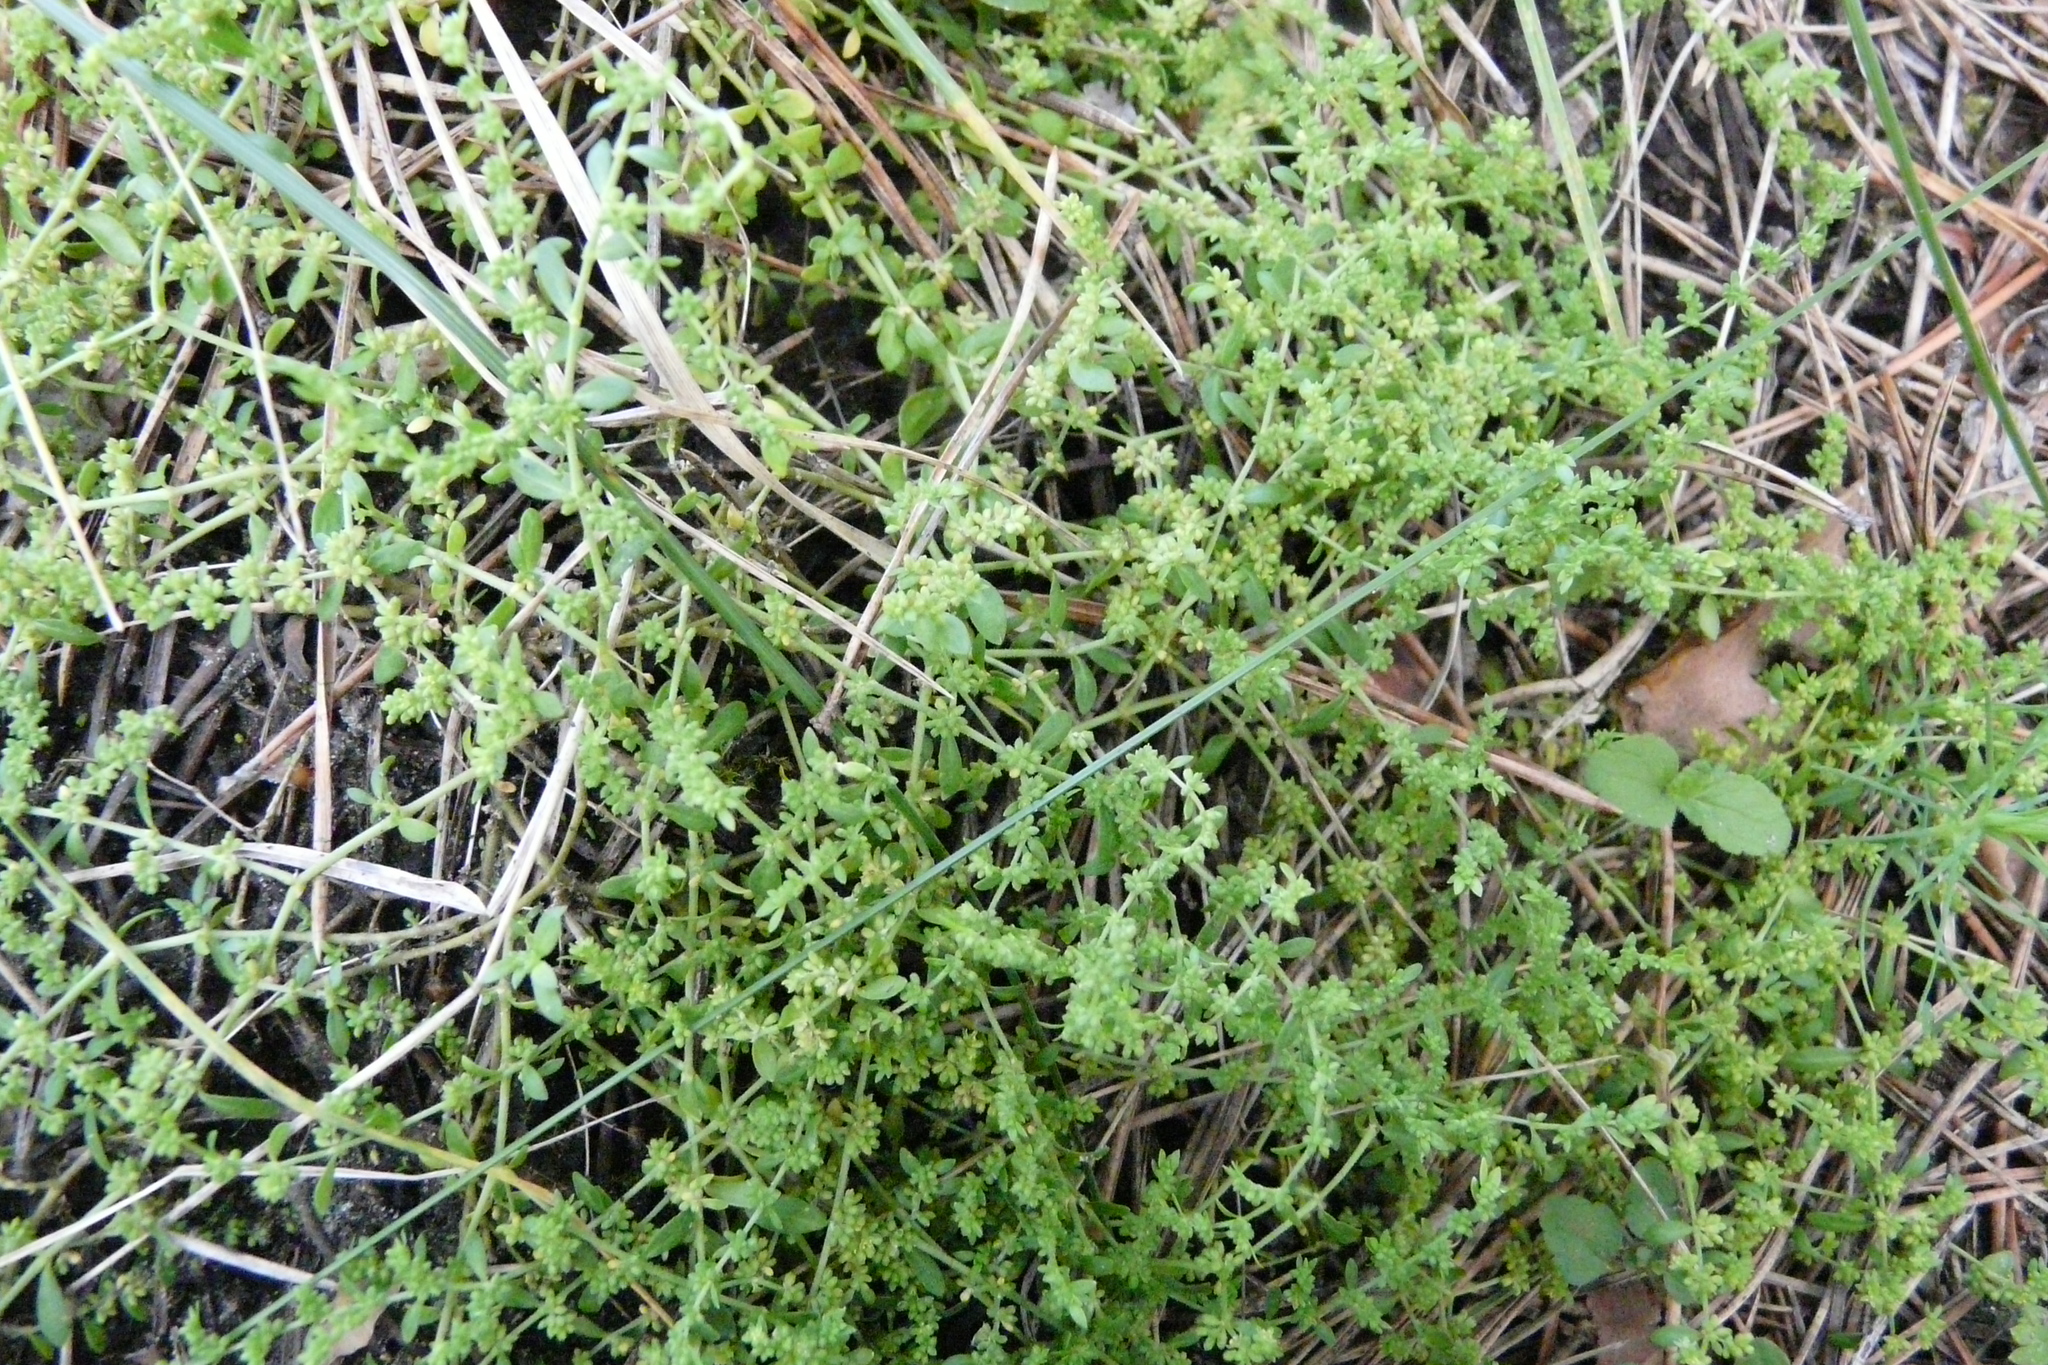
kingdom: Plantae
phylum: Tracheophyta
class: Magnoliopsida
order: Caryophyllales
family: Caryophyllaceae
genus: Herniaria
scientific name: Herniaria glabra
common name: Smooth rupturewort
